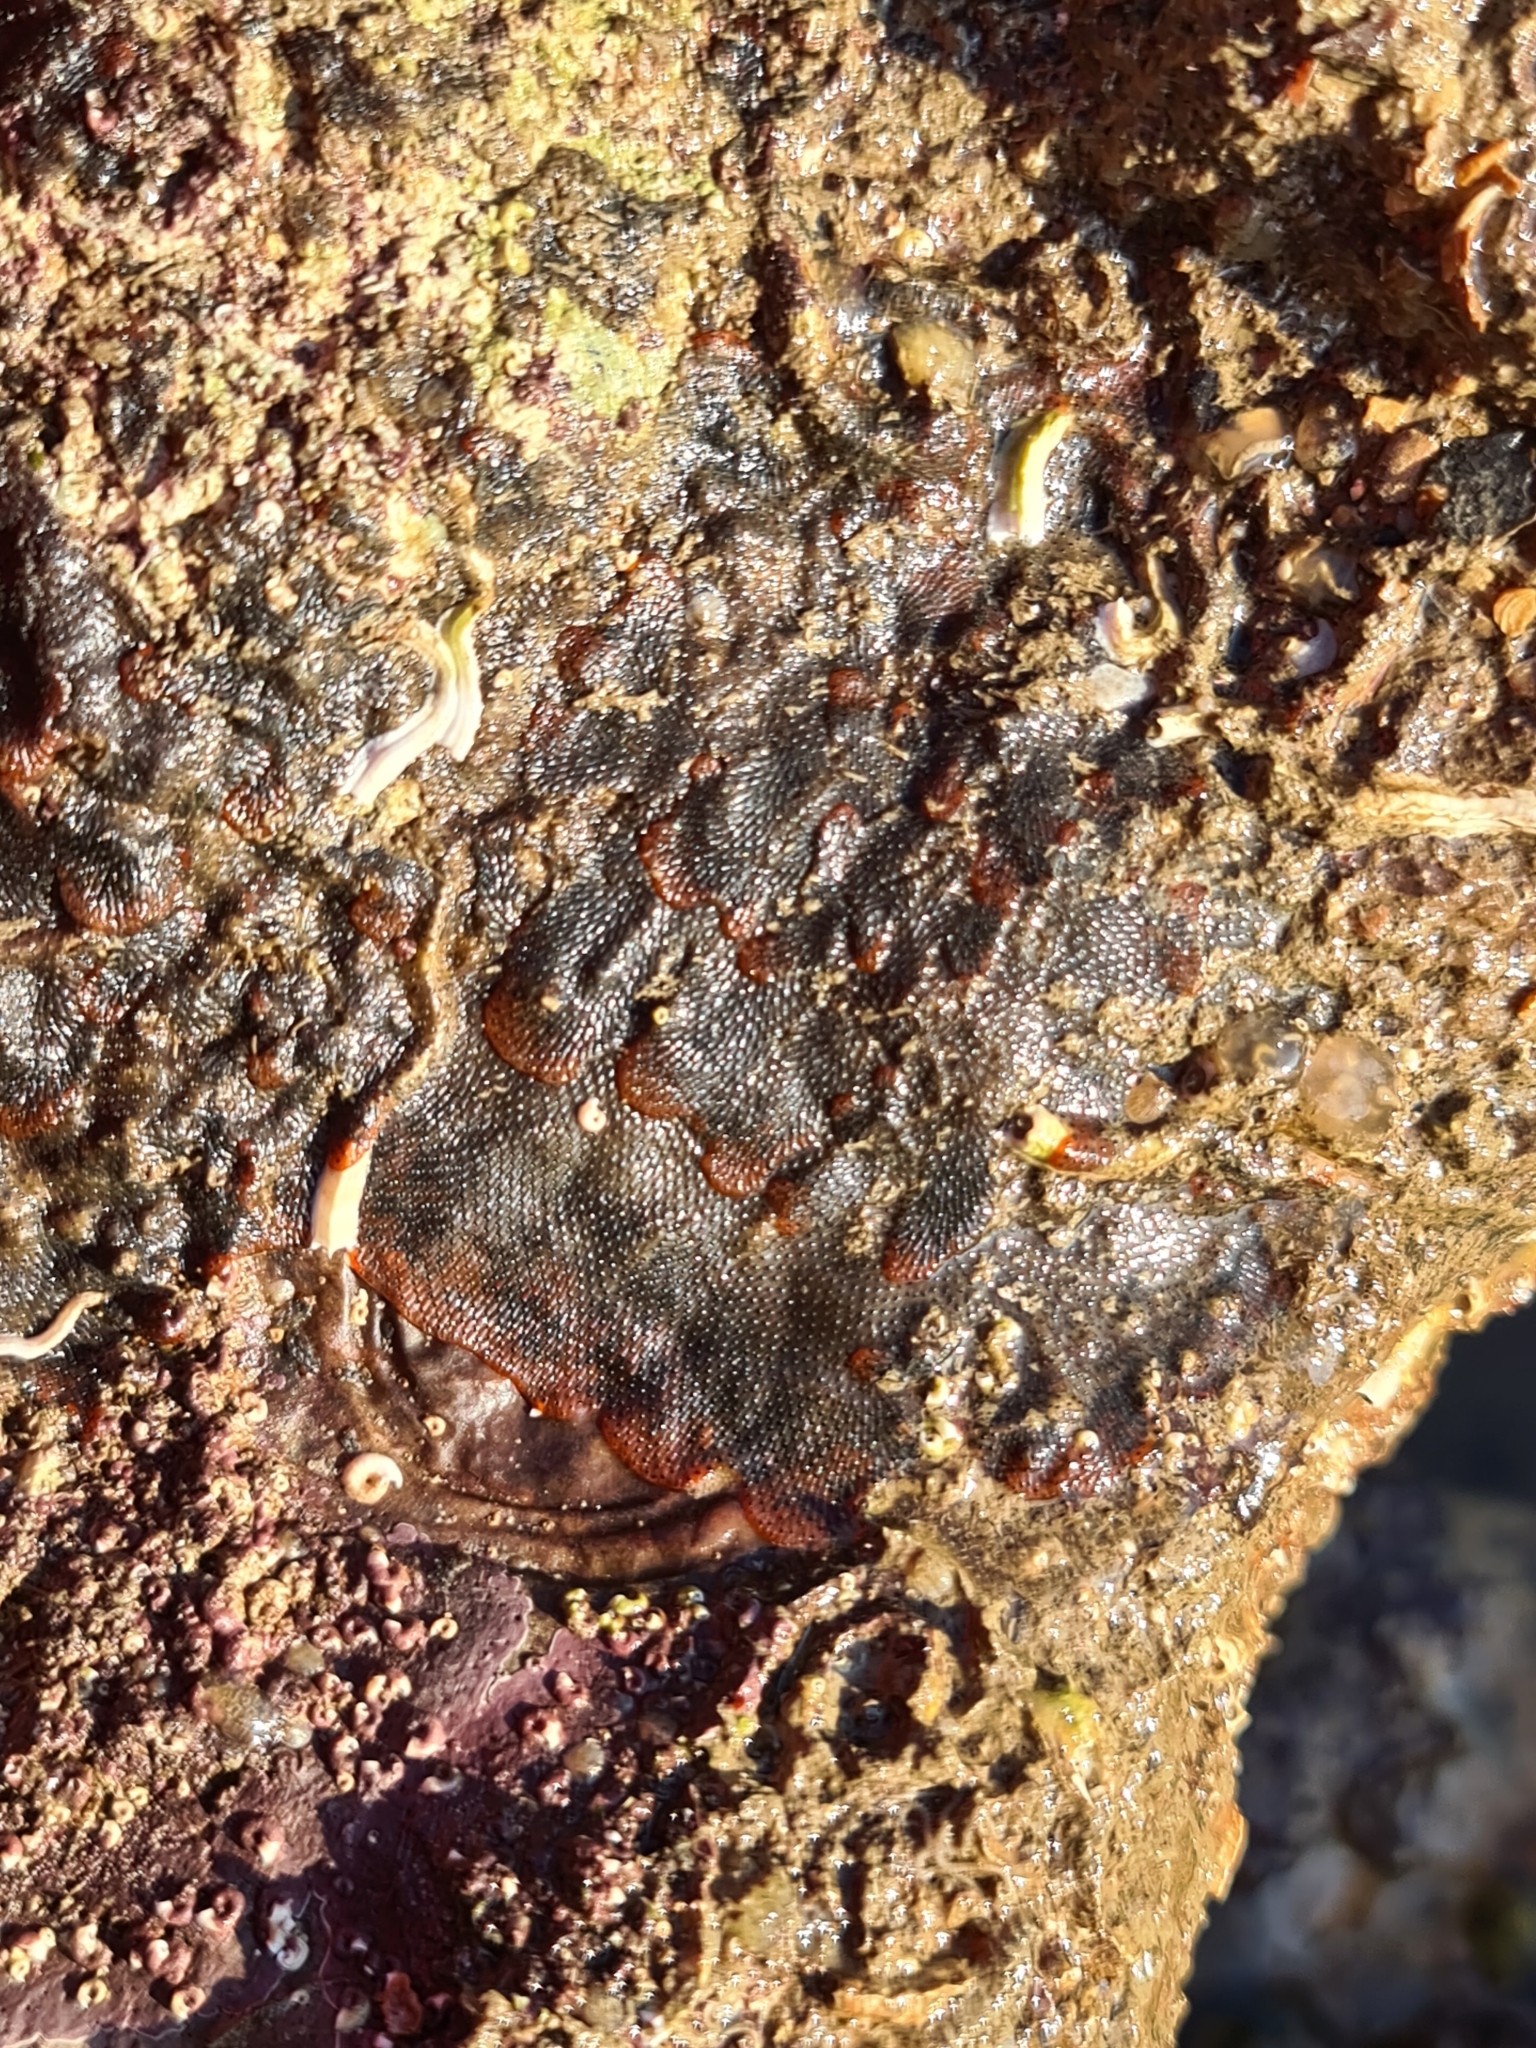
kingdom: Animalia
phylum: Bryozoa
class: Gymnolaemata
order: Cheilostomatida
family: Watersiporidae
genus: Watersipora
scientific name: Watersipora subatra
